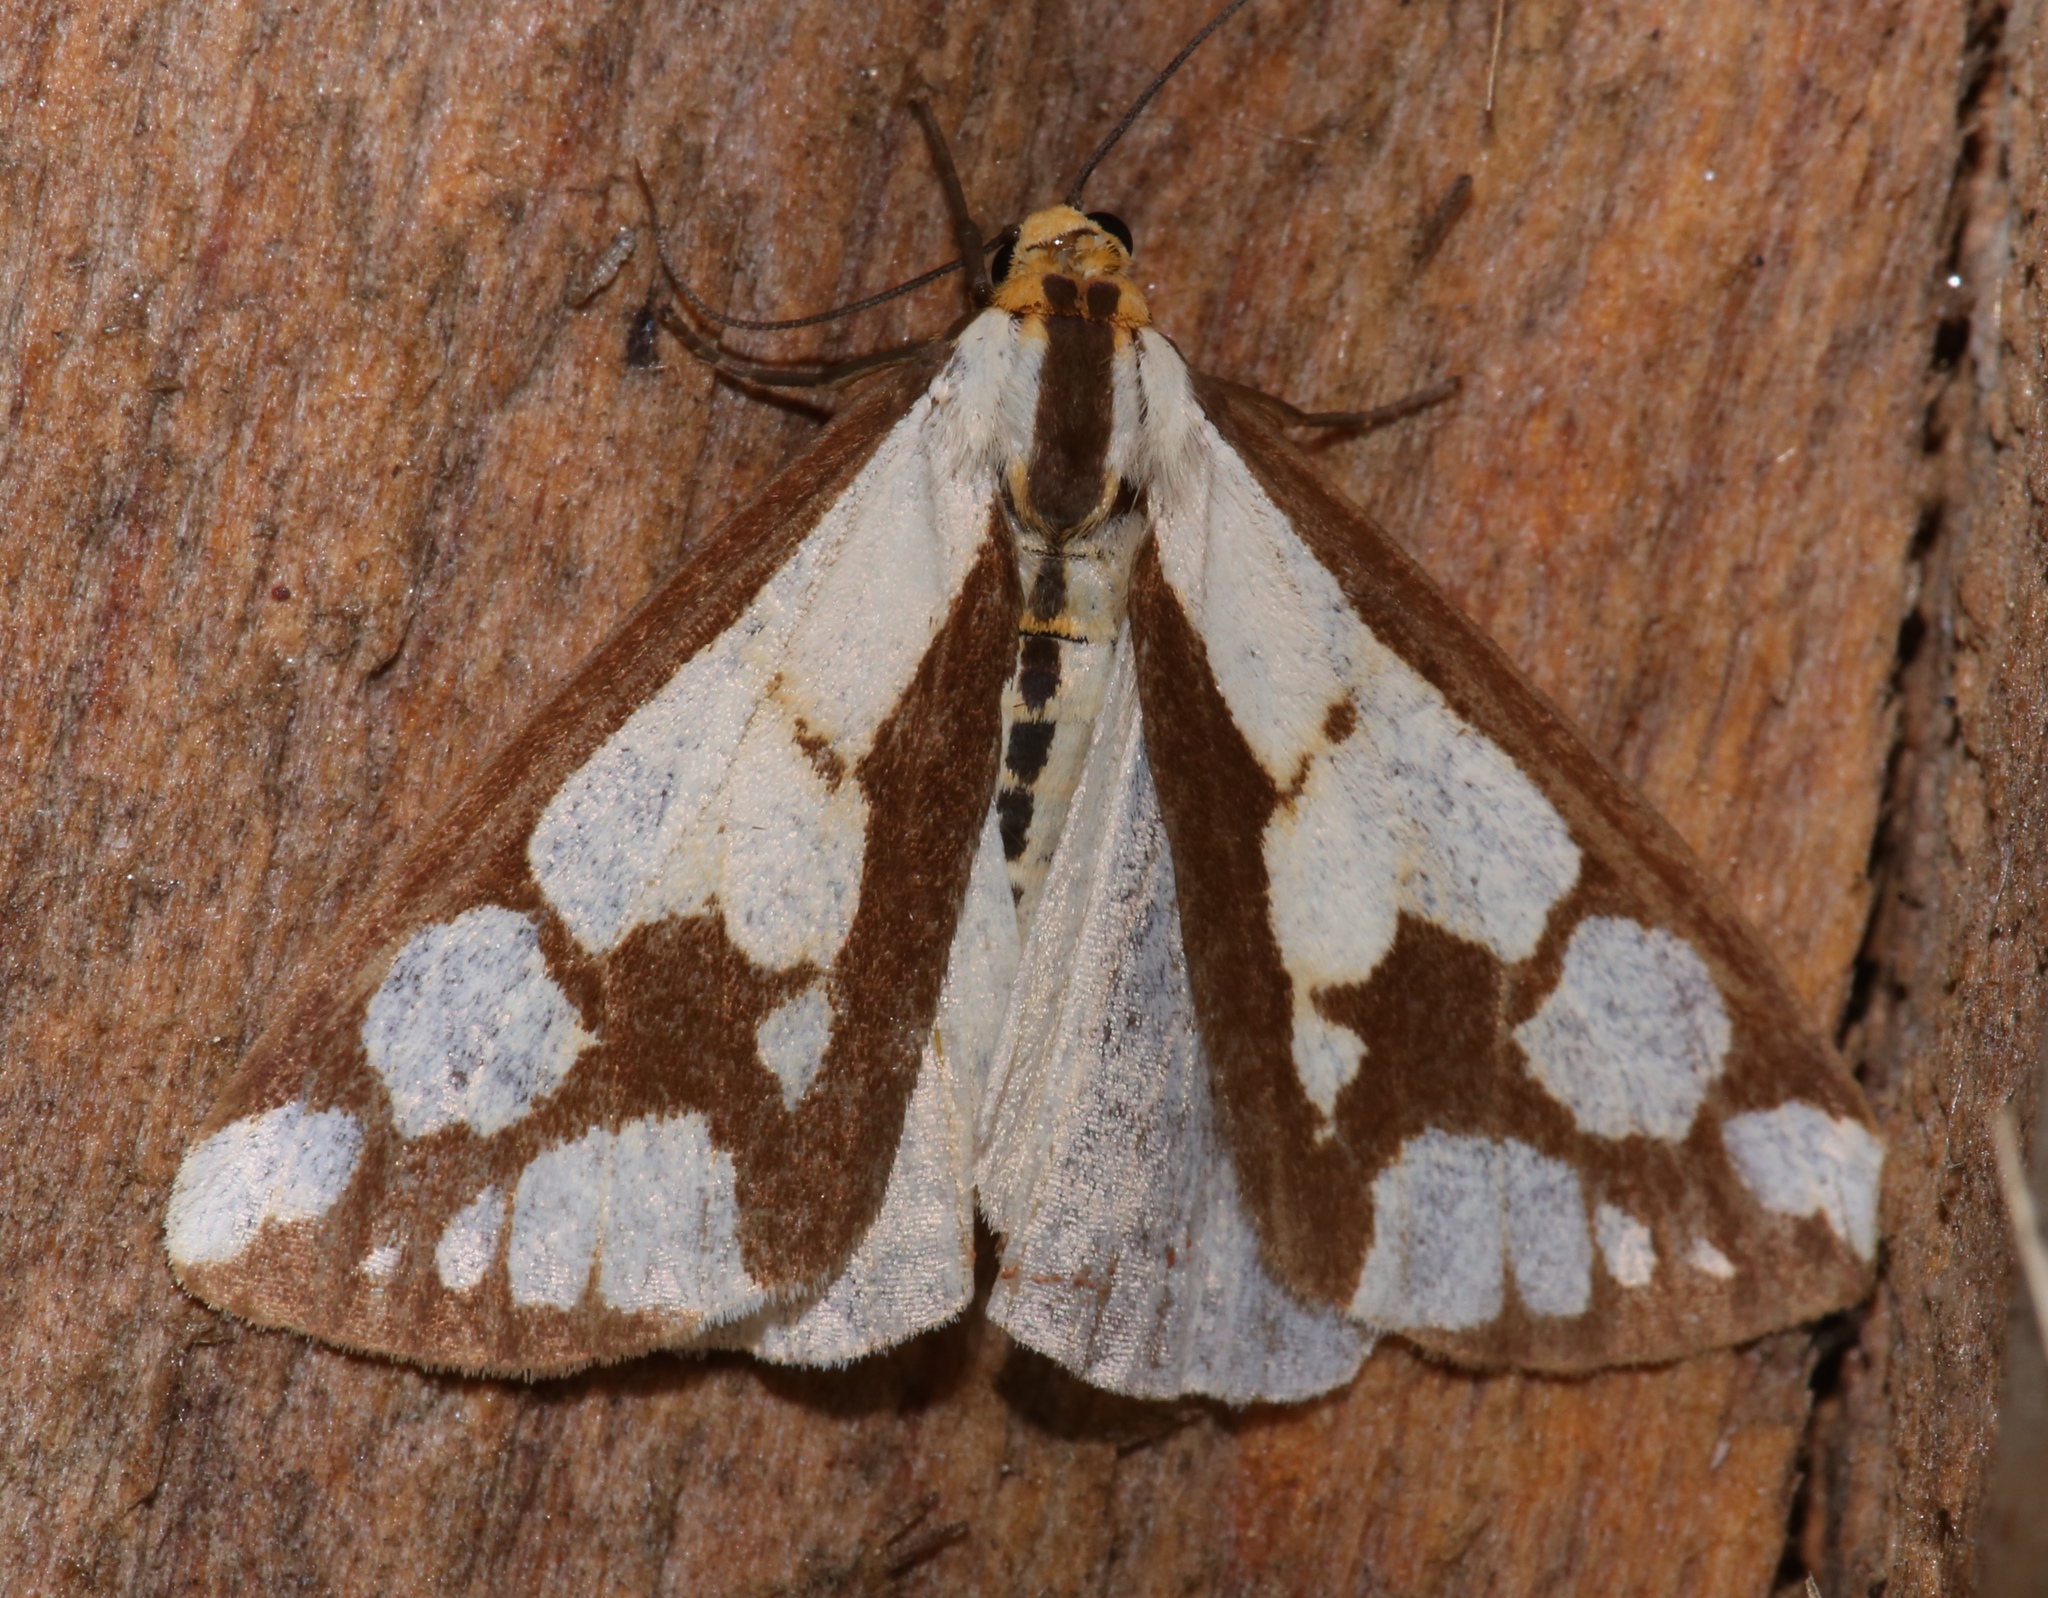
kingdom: Animalia
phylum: Arthropoda
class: Insecta
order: Lepidoptera
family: Erebidae
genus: Haploa
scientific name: Haploa confusa
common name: Confused haploa moth
